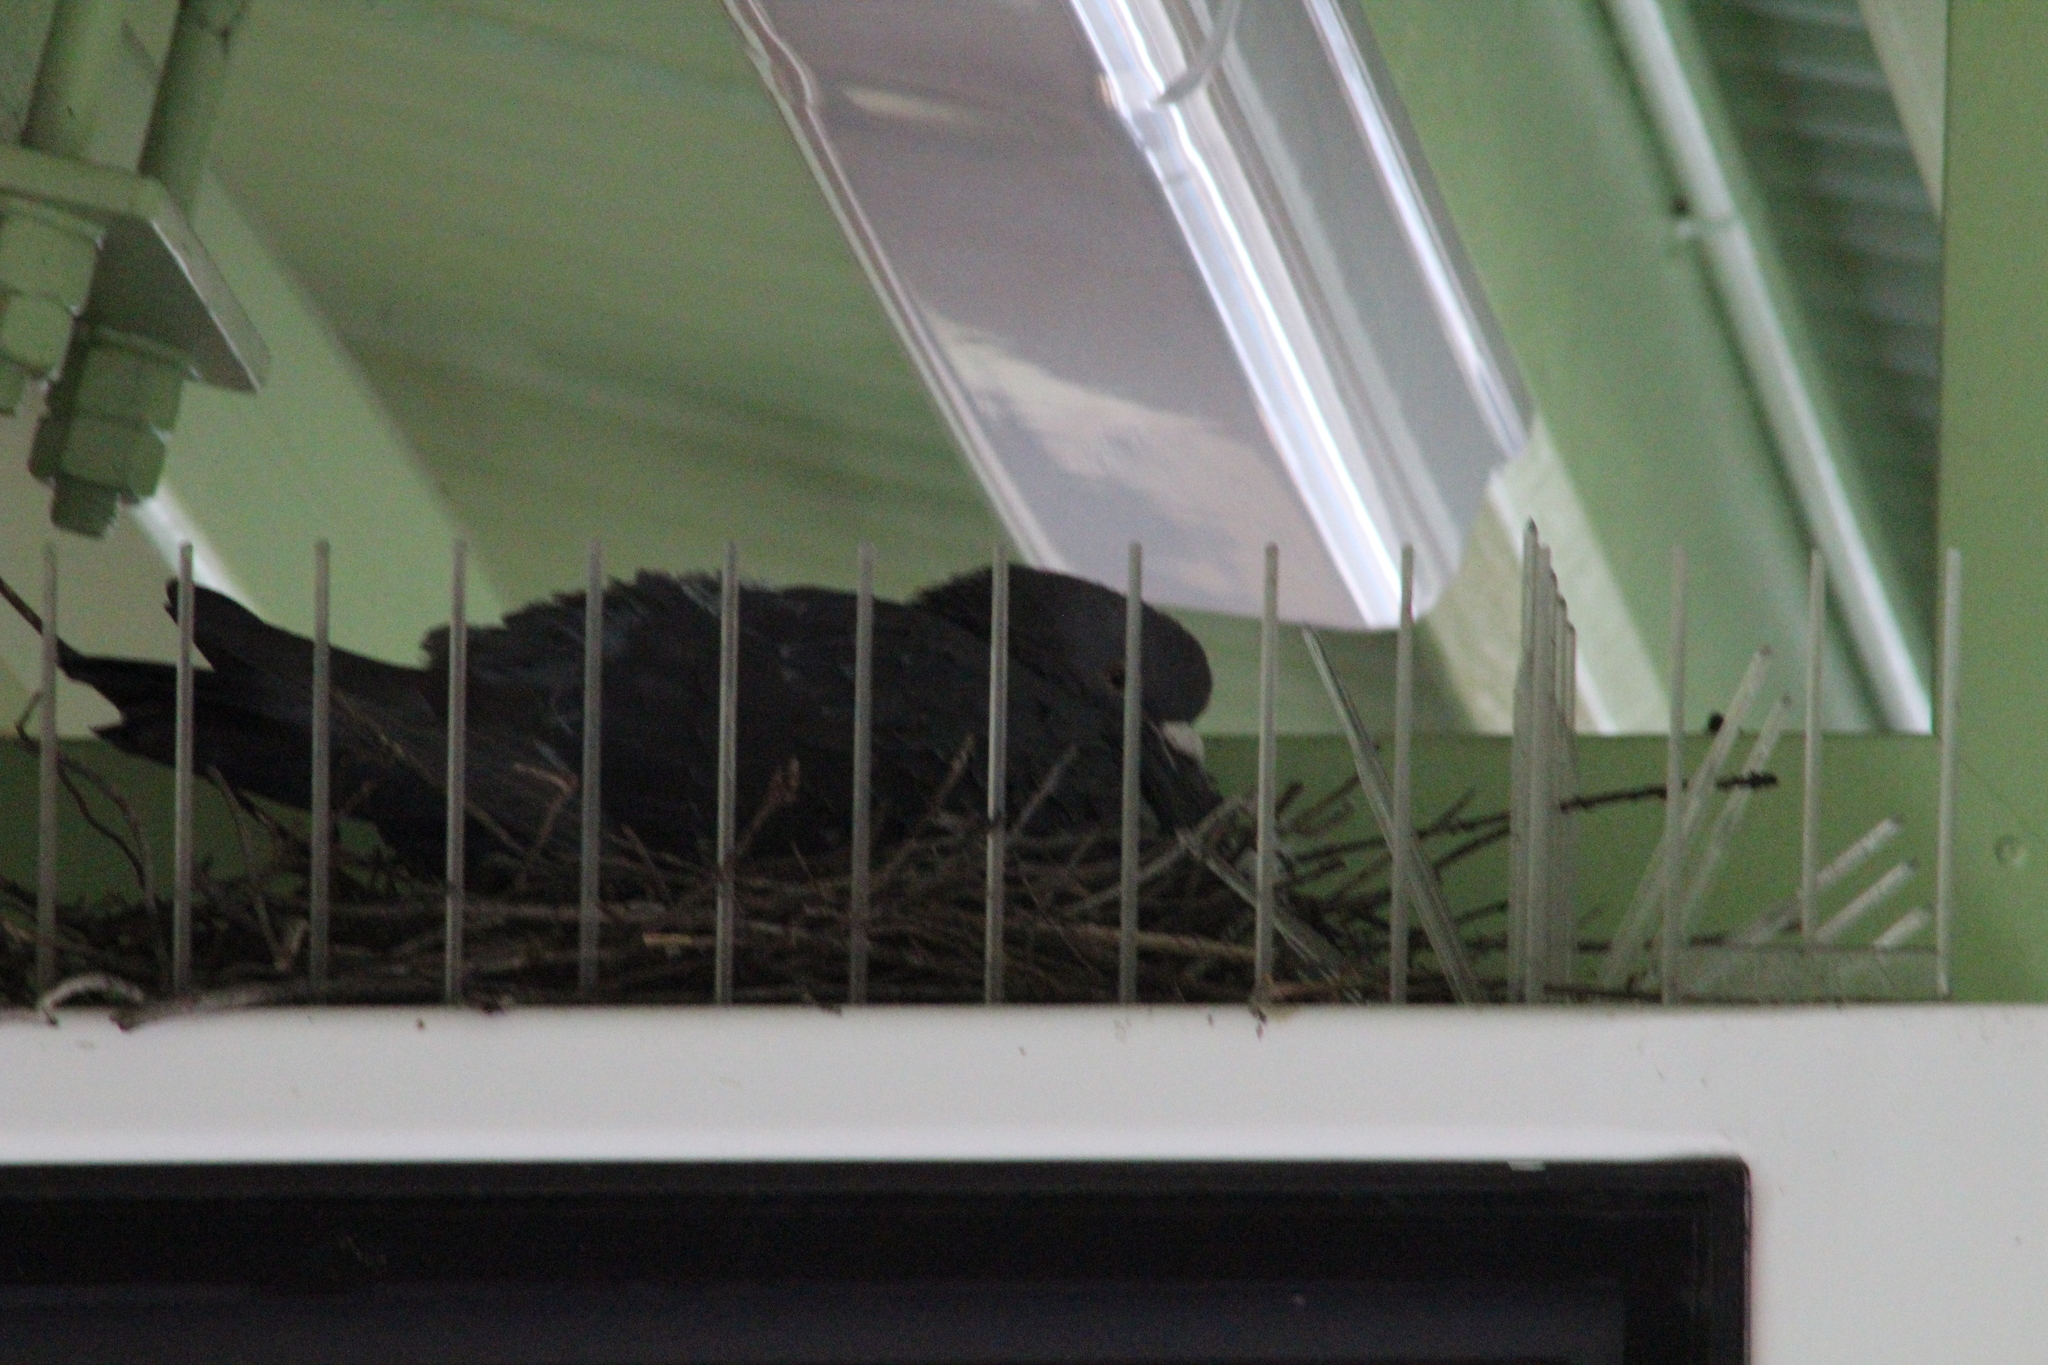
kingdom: Animalia
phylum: Chordata
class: Aves
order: Columbiformes
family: Columbidae
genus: Columba
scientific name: Columba livia
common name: Rock pigeon
